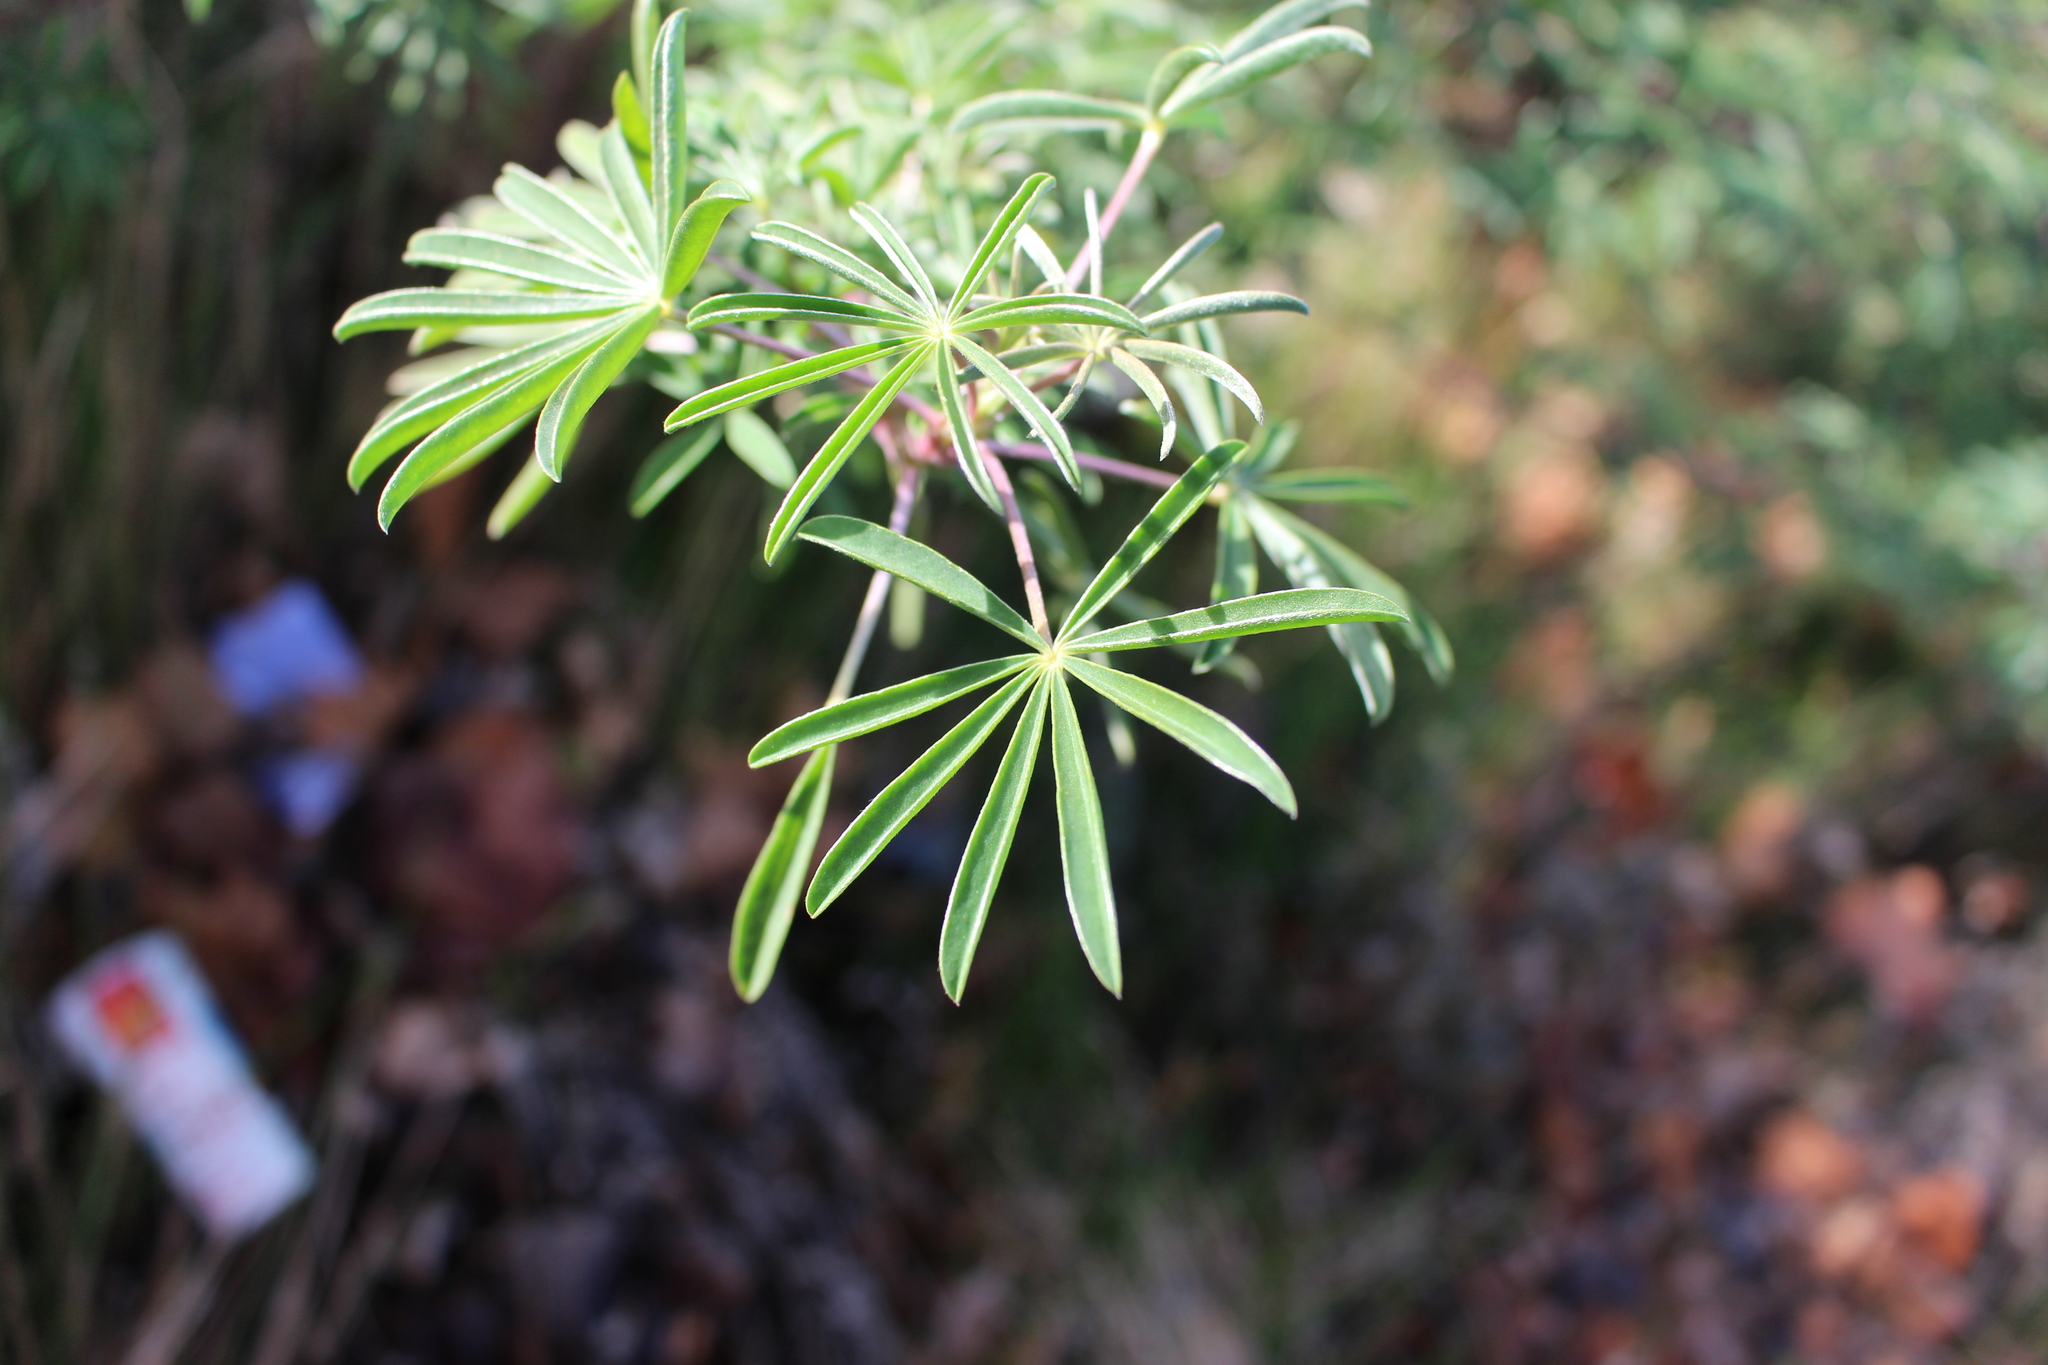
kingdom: Plantae
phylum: Tracheophyta
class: Magnoliopsida
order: Fabales
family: Fabaceae
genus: Lupinus
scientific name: Lupinus arboreus
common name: Yellow bush lupine
